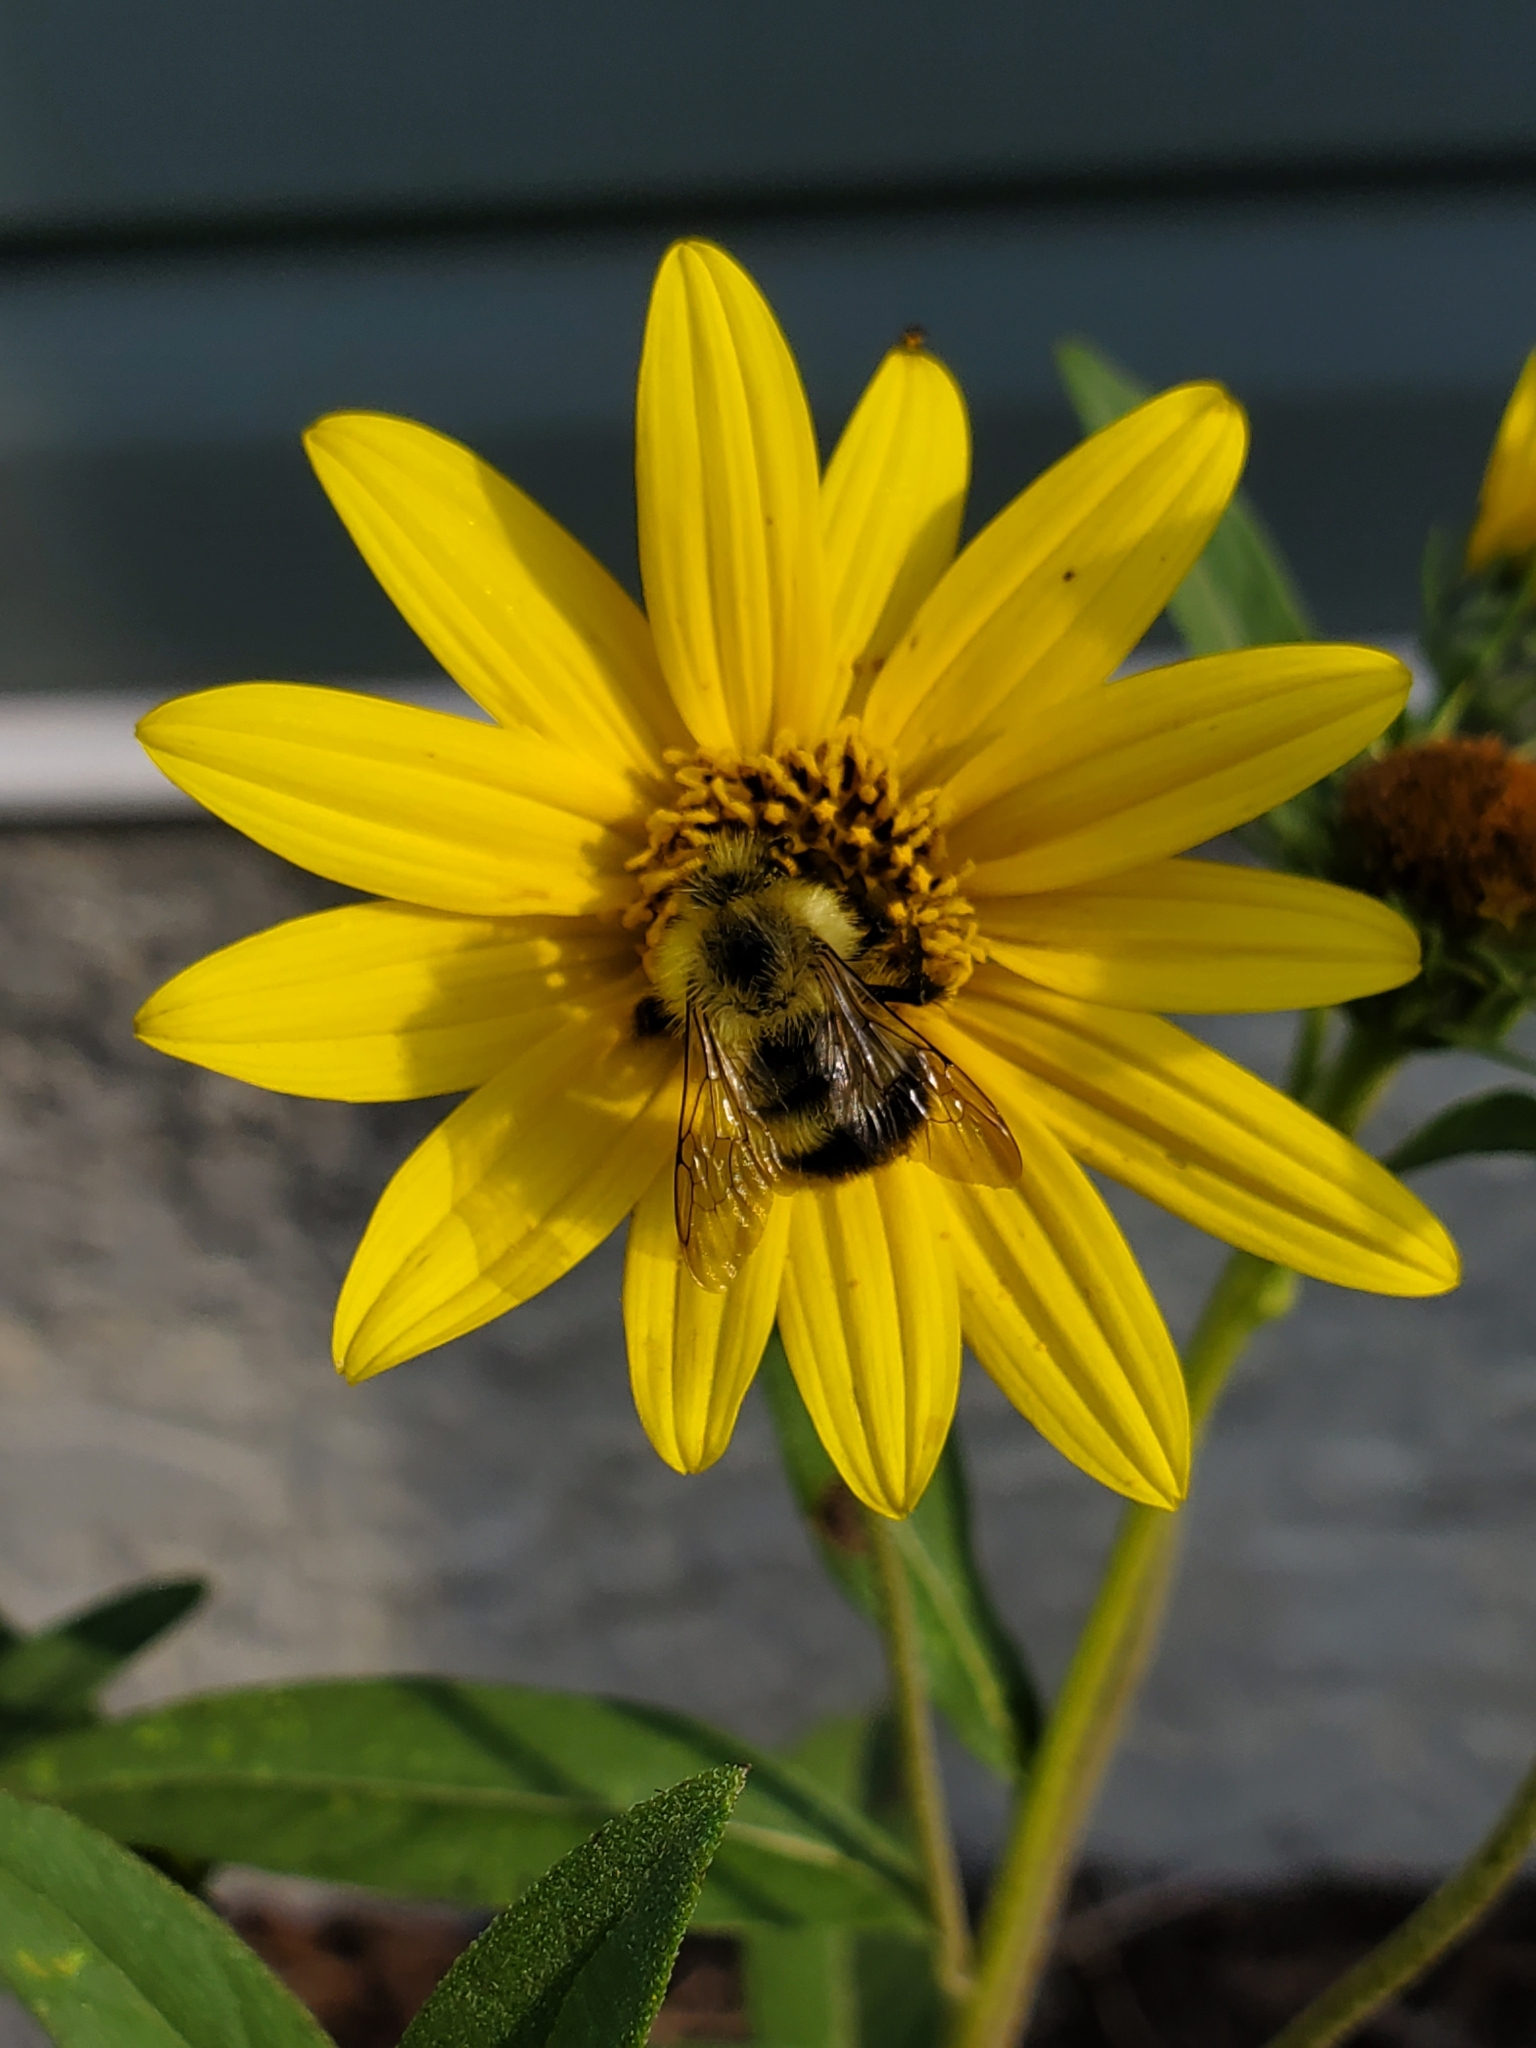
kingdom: Animalia
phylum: Arthropoda
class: Insecta
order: Hymenoptera
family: Apidae
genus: Pyrobombus
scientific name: Pyrobombus
